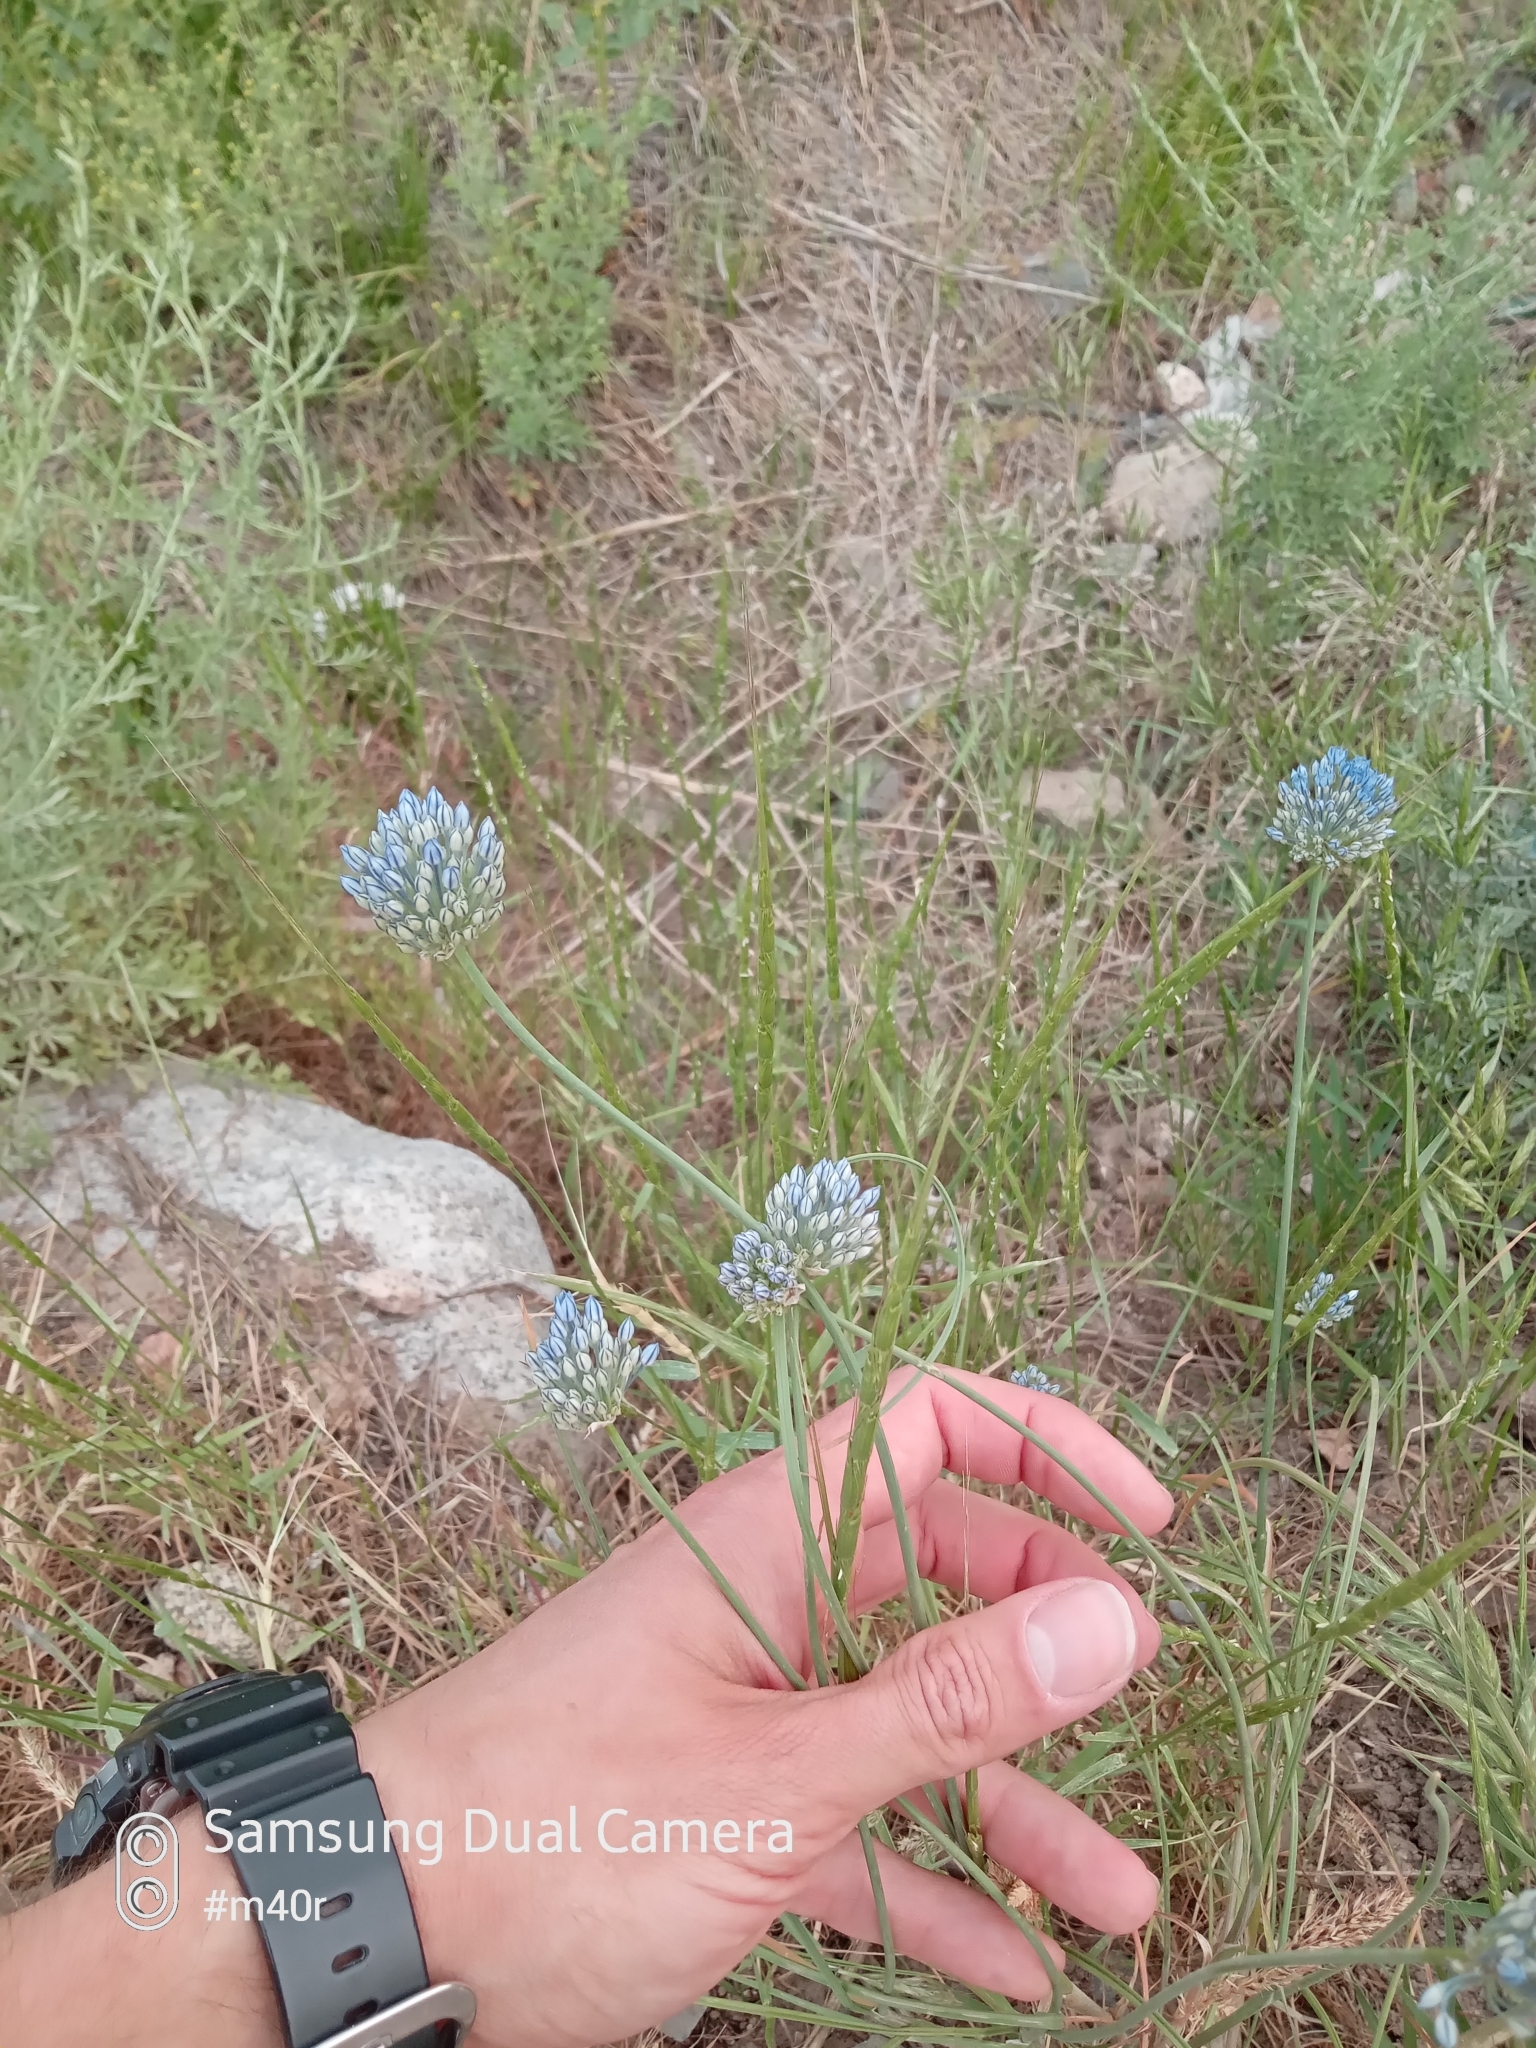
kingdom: Plantae
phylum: Tracheophyta
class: Liliopsida
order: Asparagales
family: Amaryllidaceae
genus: Allium
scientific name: Allium caeruleum
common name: Blue-of-the-heavens
